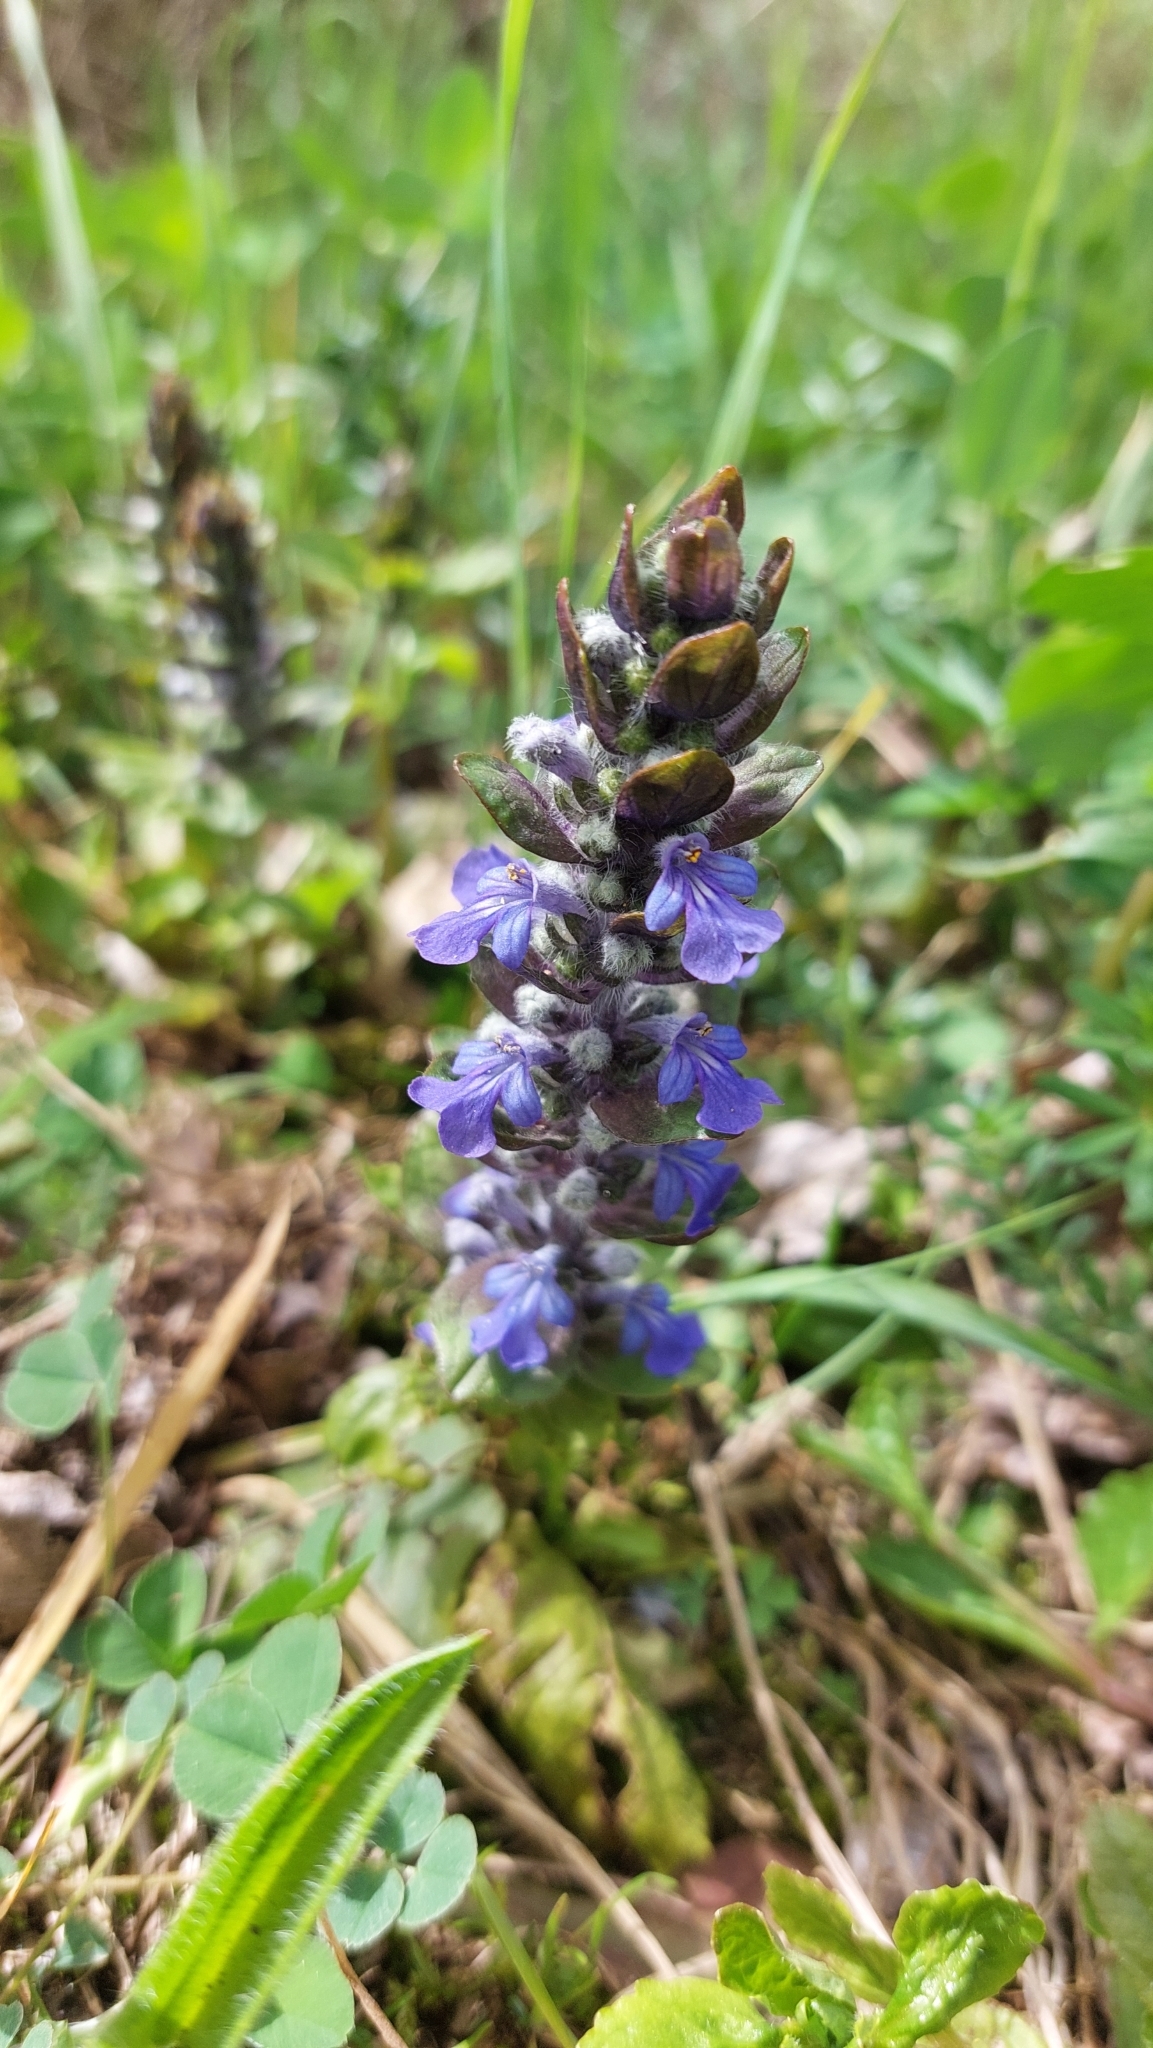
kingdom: Plantae
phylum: Tracheophyta
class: Magnoliopsida
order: Lamiales
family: Lamiaceae
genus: Ajuga
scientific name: Ajuga reptans
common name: Bugle
